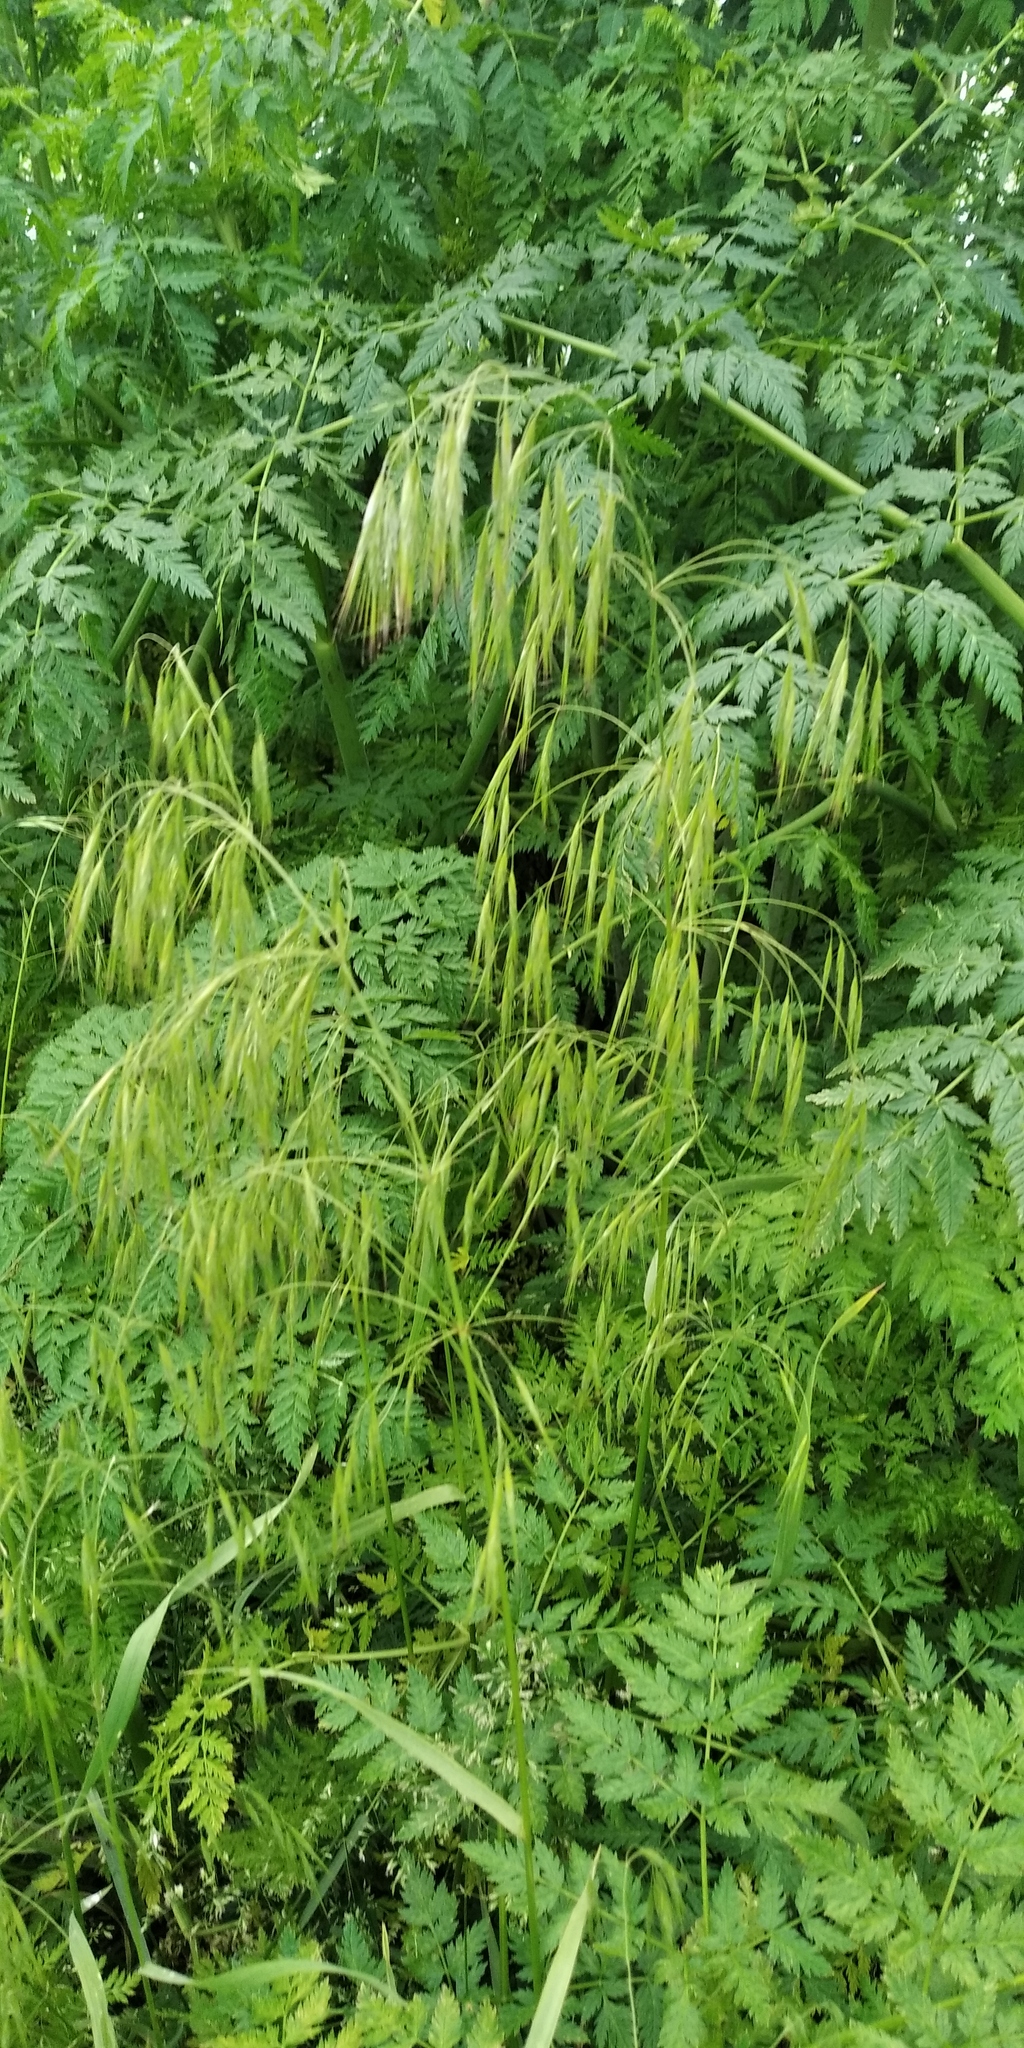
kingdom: Plantae
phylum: Tracheophyta
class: Liliopsida
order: Poales
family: Poaceae
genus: Bromus
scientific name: Bromus tectorum
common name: Cheatgrass
